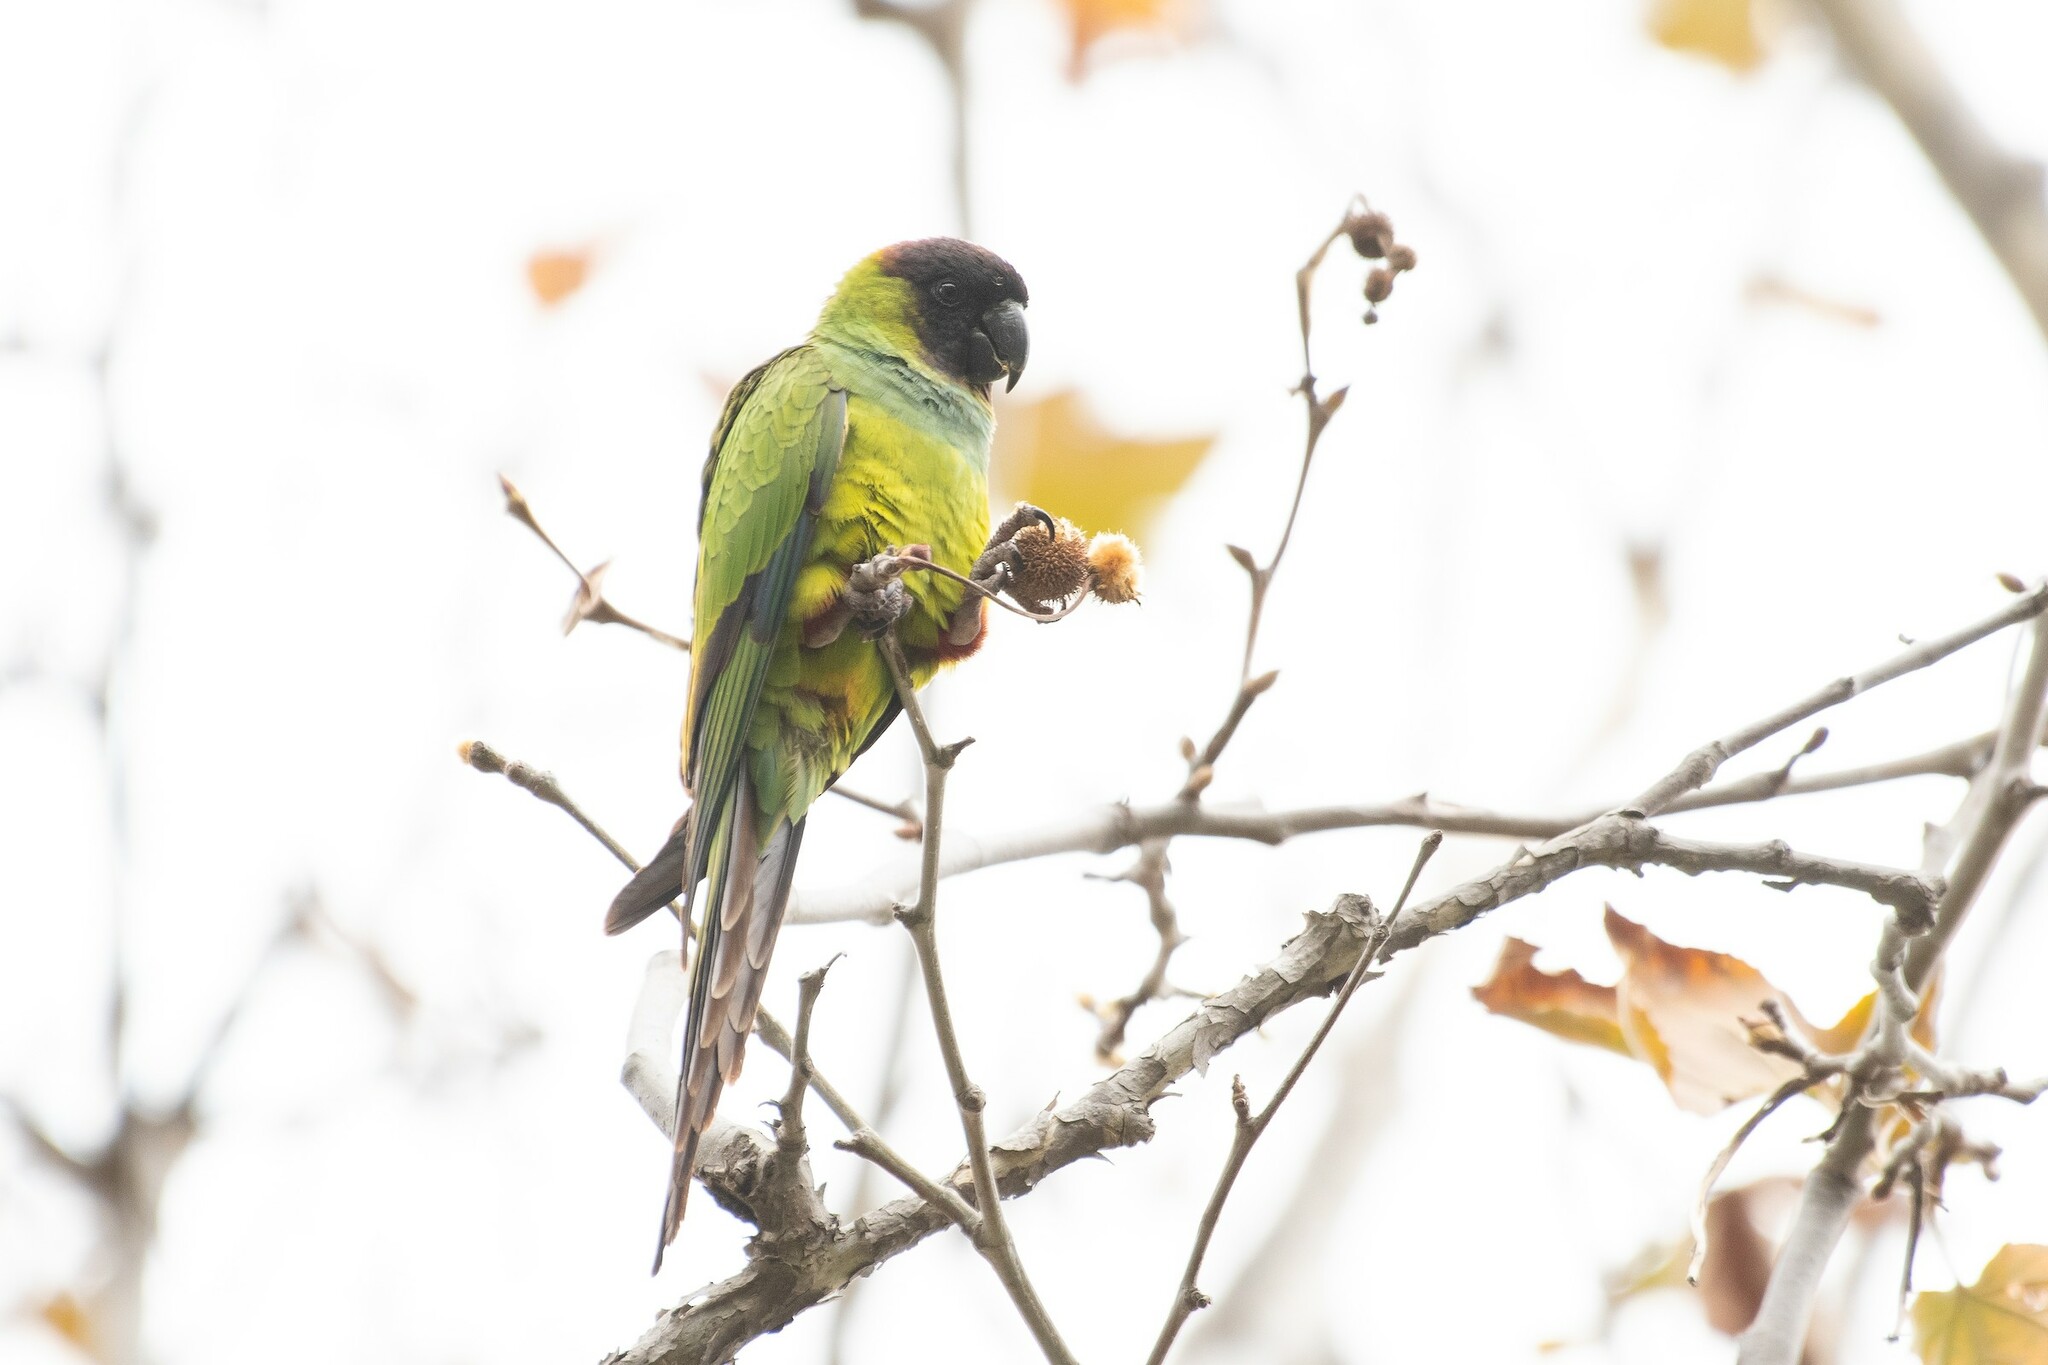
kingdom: Animalia
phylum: Chordata
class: Aves
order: Psittaciformes
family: Psittacidae
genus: Nandayus
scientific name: Nandayus nenday
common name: Nanday parakeet
